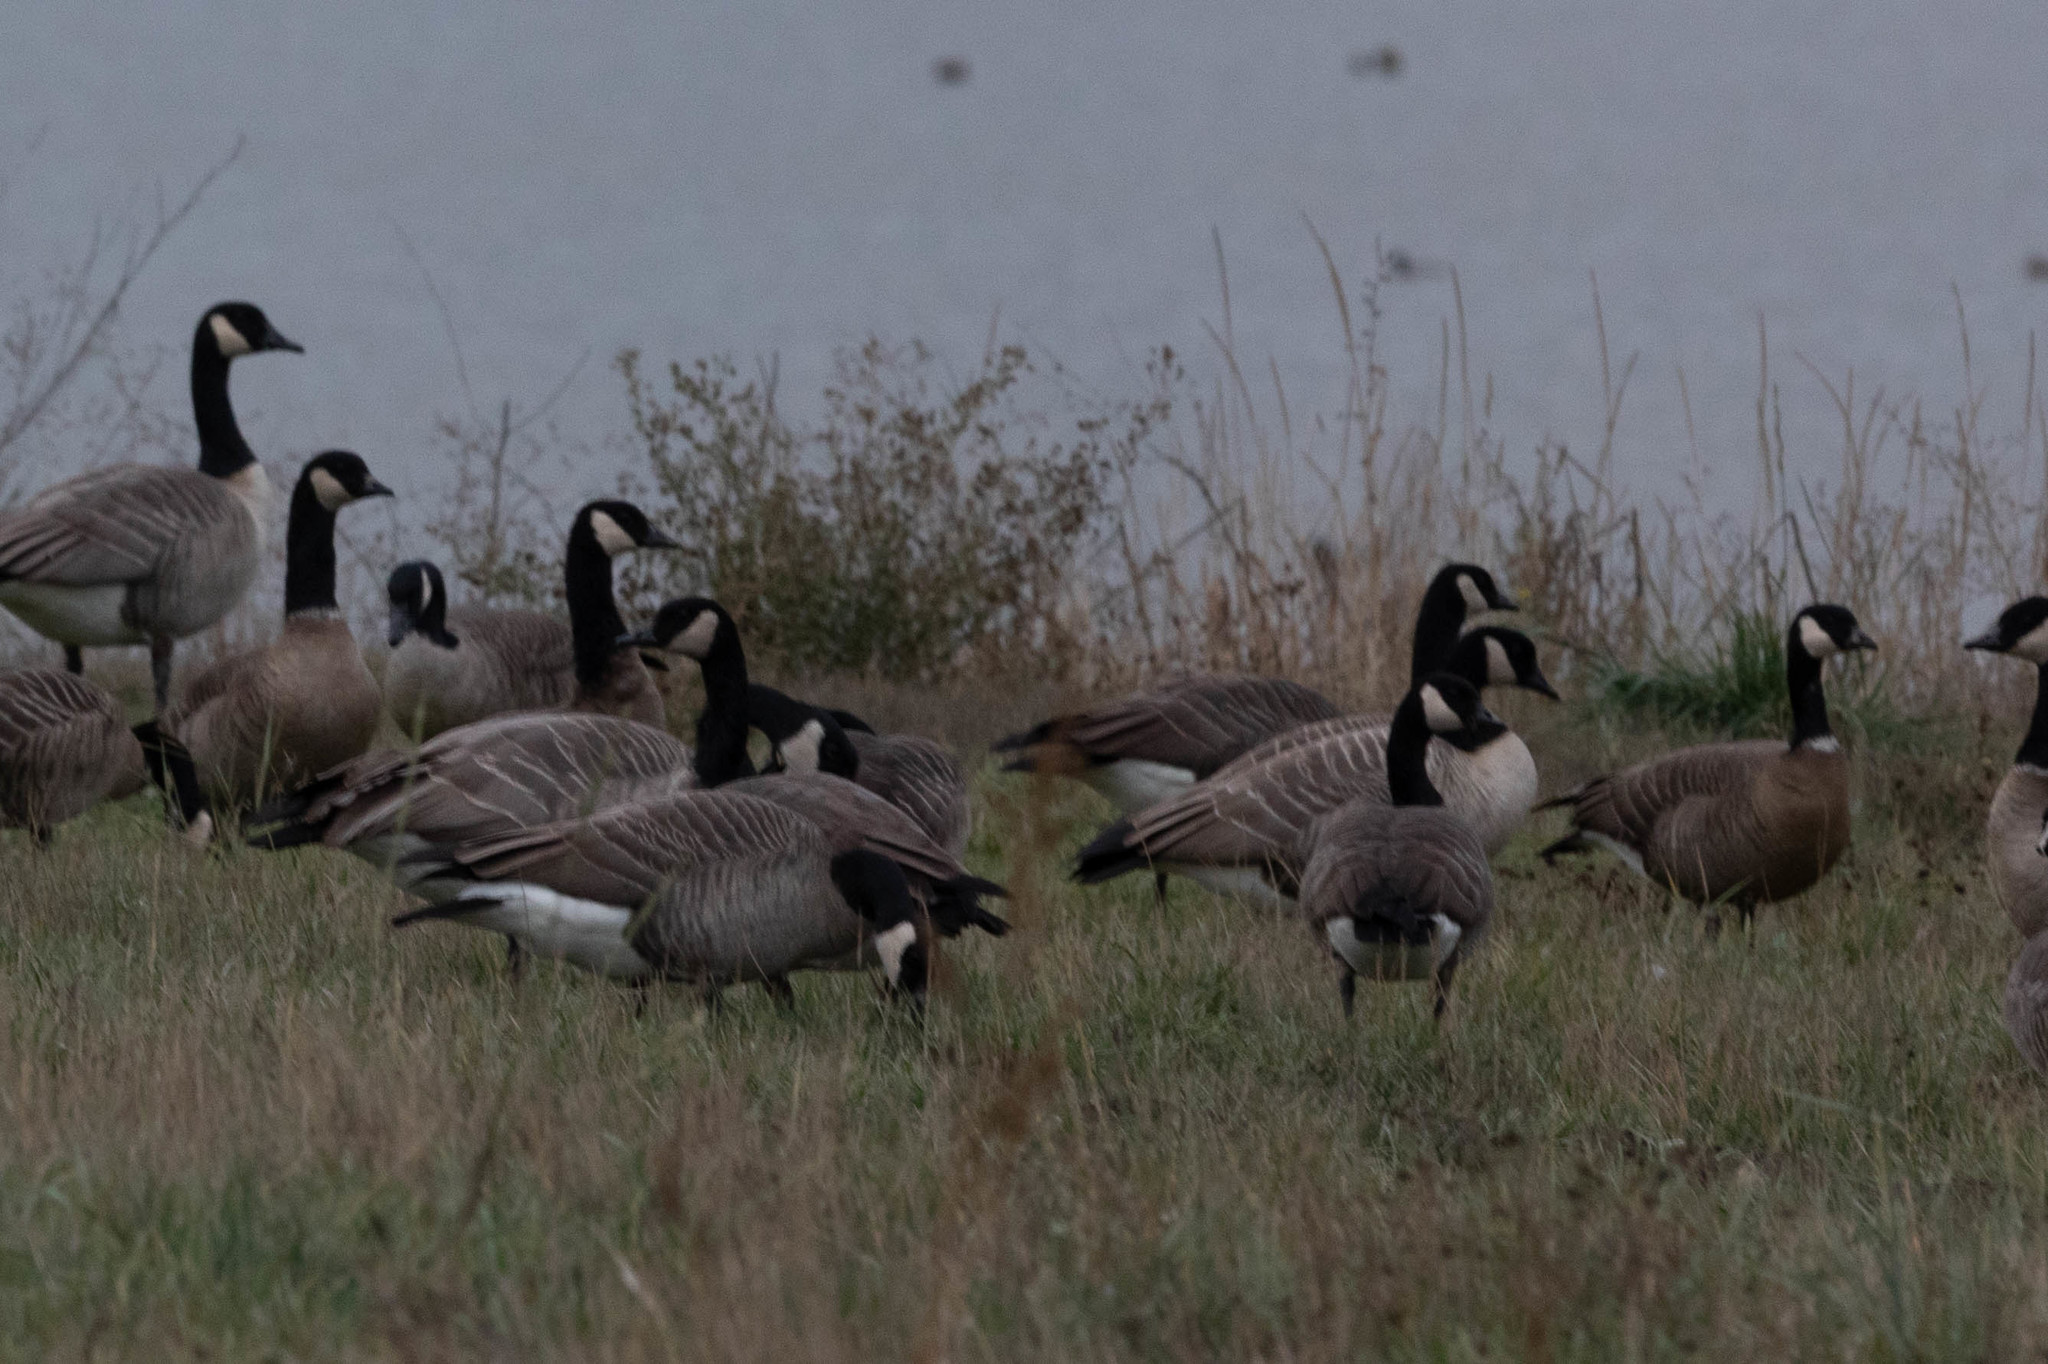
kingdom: Animalia
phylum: Chordata
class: Aves
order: Anseriformes
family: Anatidae
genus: Branta
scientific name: Branta hutchinsii
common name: Cackling goose
